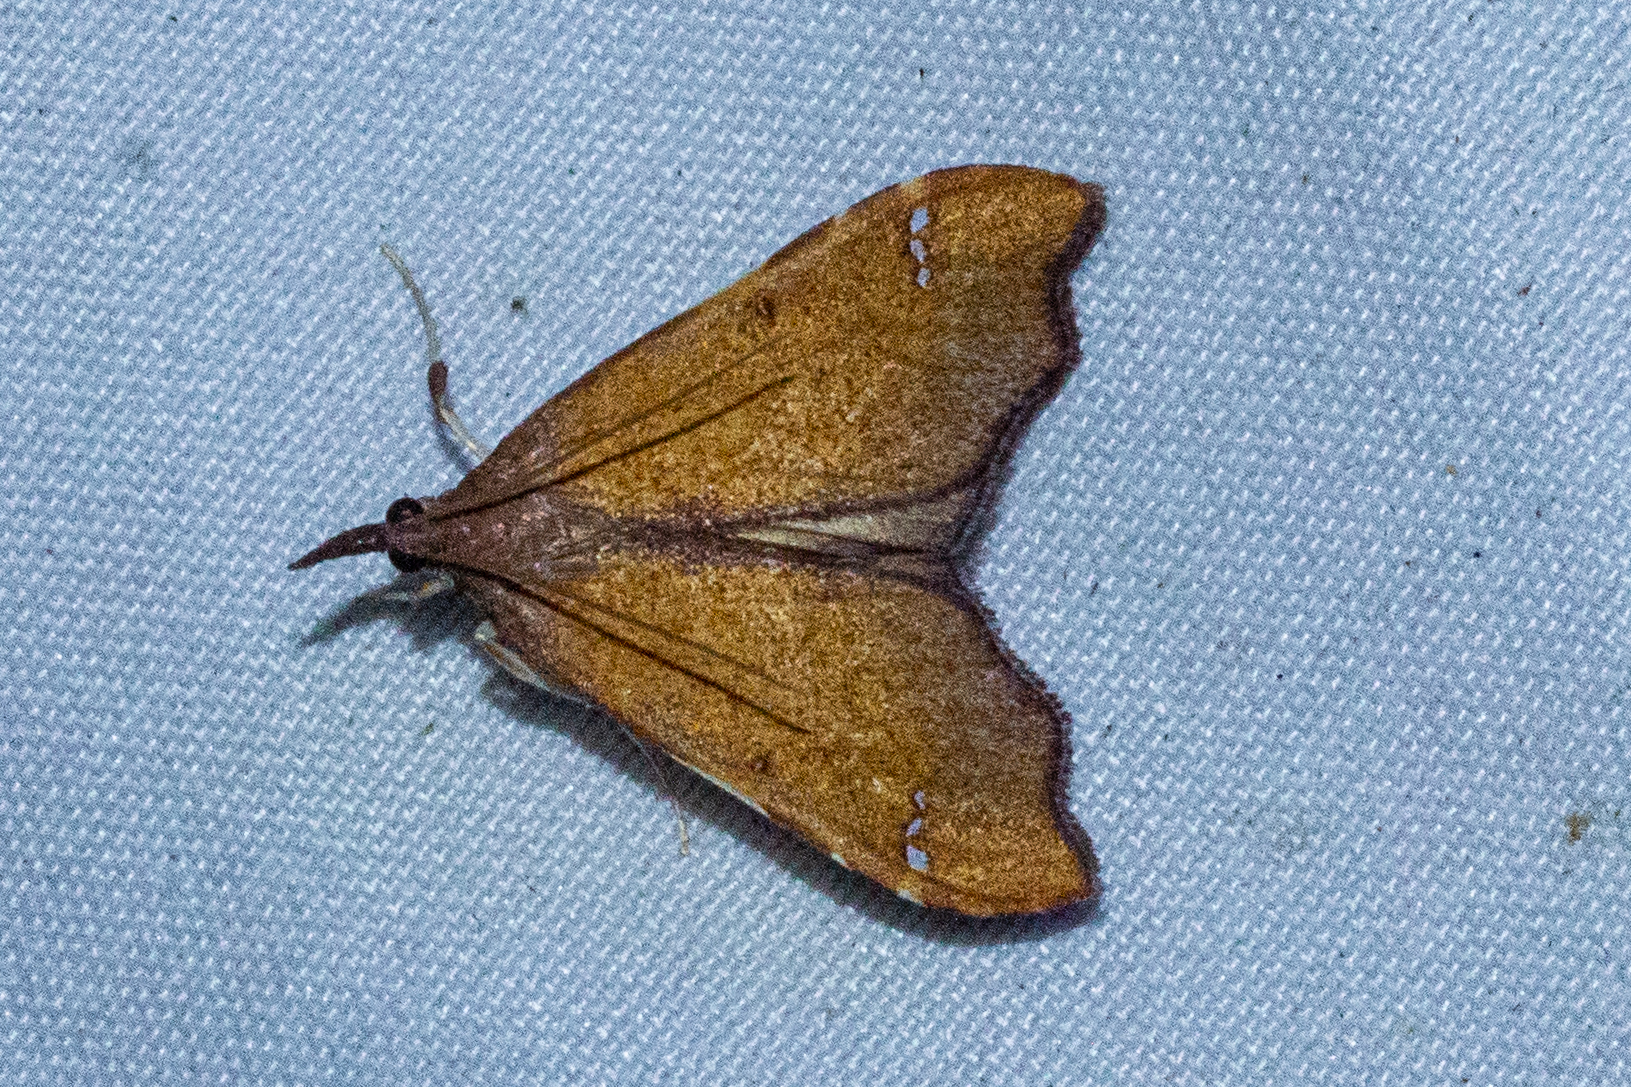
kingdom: Animalia
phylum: Arthropoda
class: Insecta
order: Lepidoptera
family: Crambidae
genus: Deana
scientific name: Deana hybreasalis
